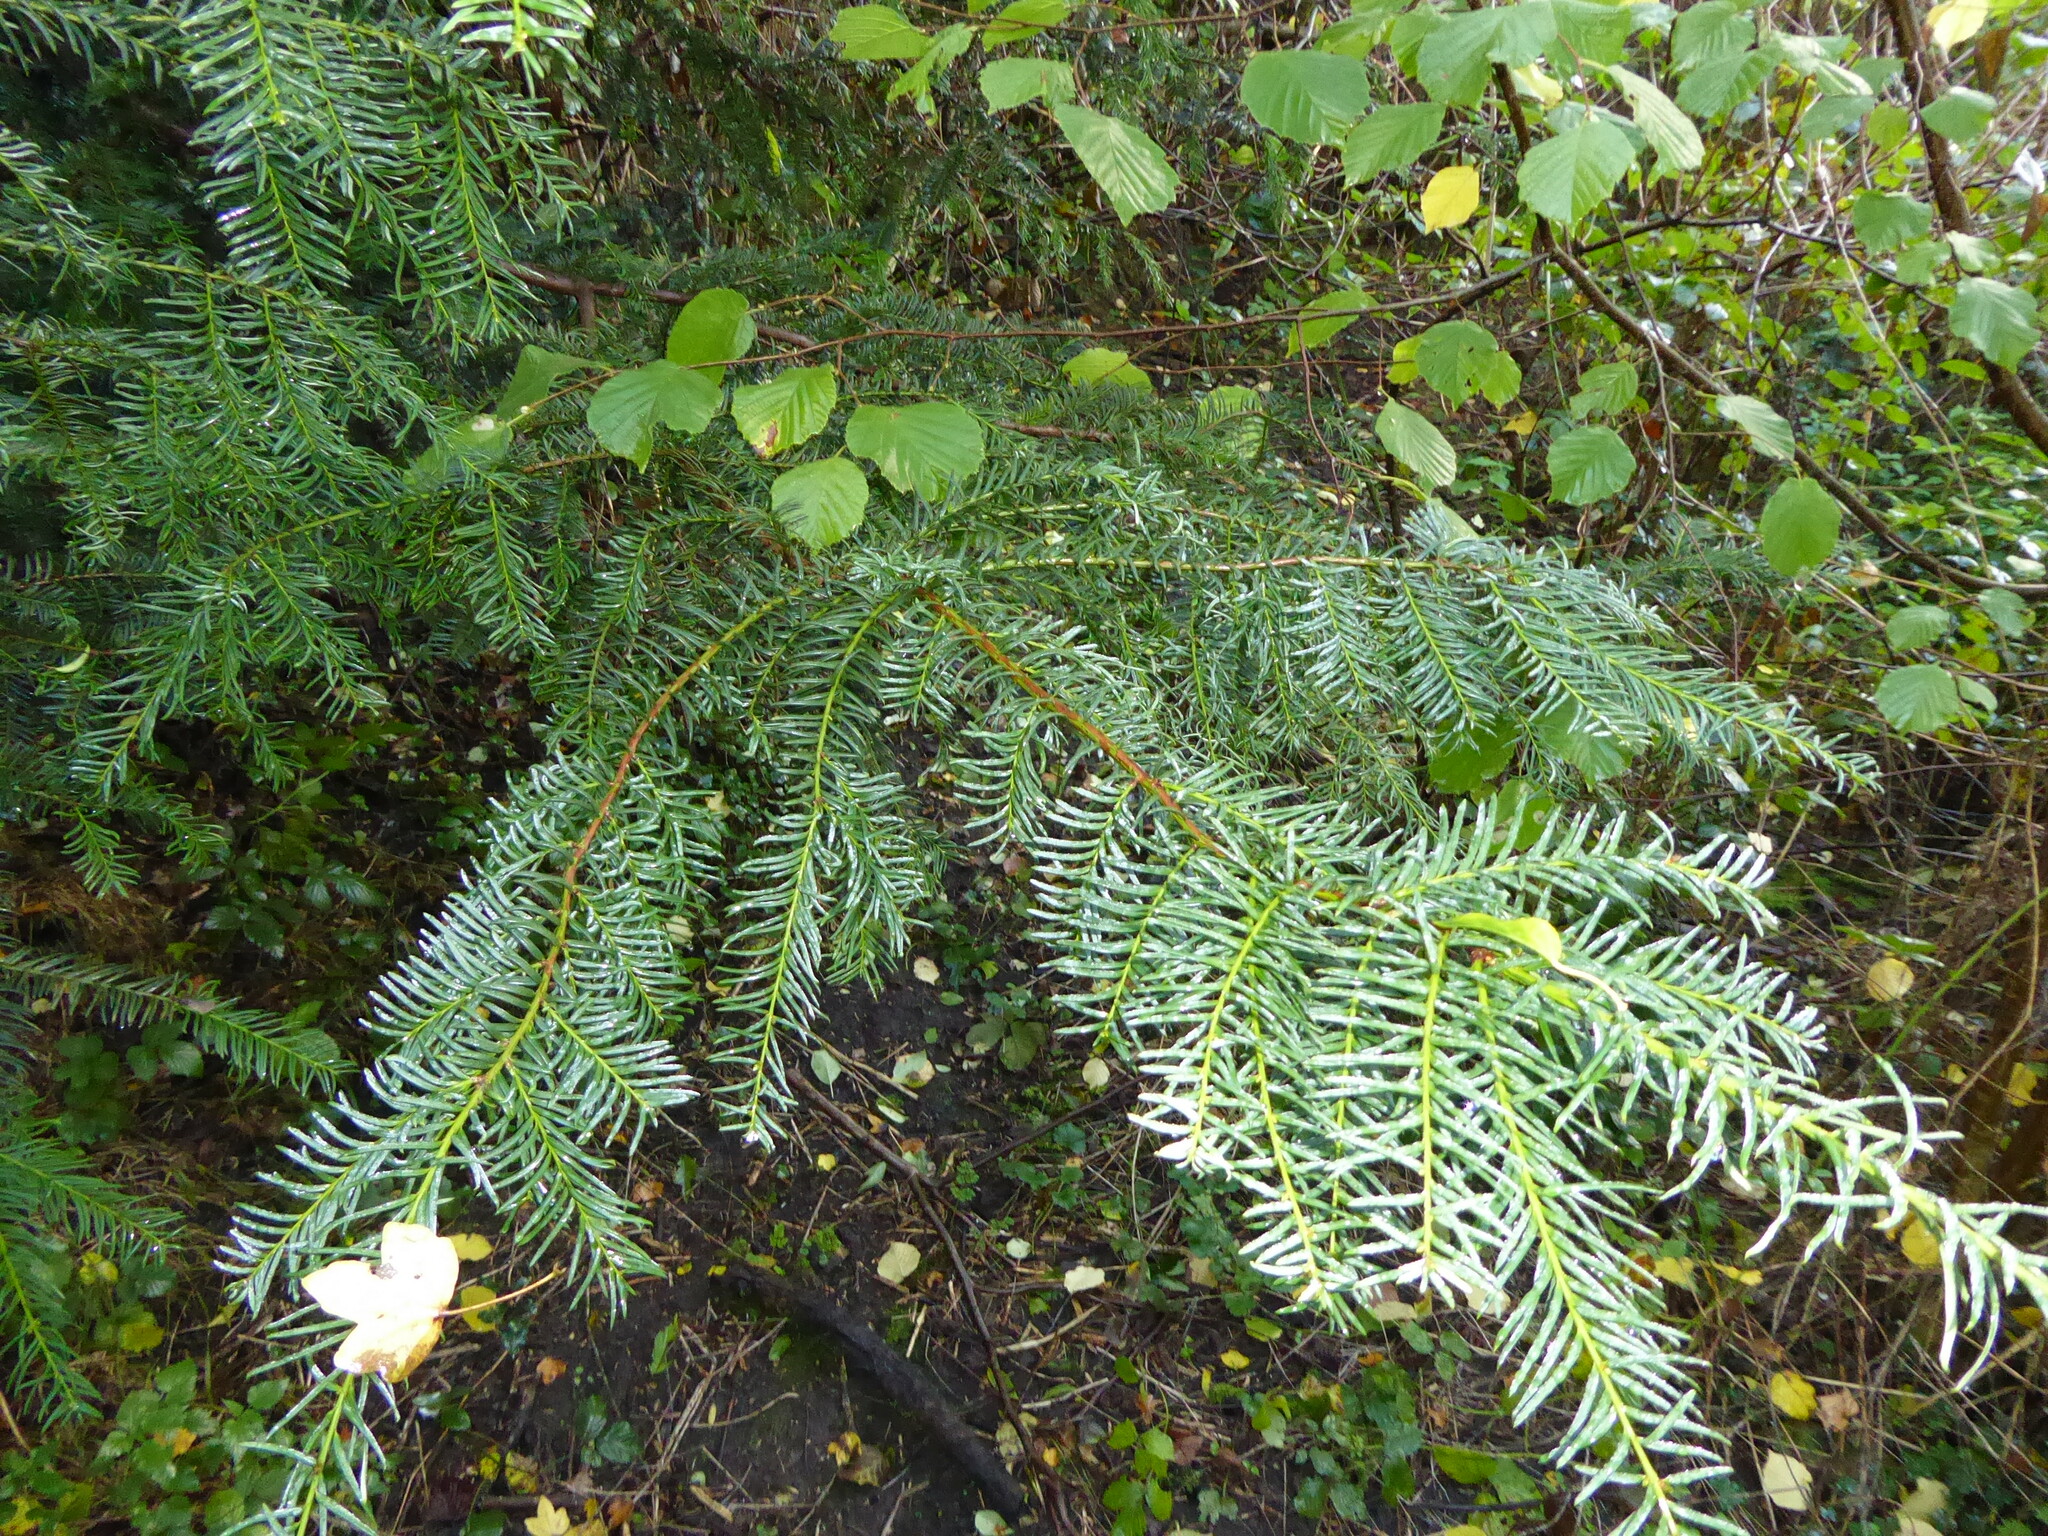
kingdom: Plantae
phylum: Tracheophyta
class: Pinopsida
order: Pinales
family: Taxaceae
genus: Taxus
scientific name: Taxus baccata
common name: Yew
